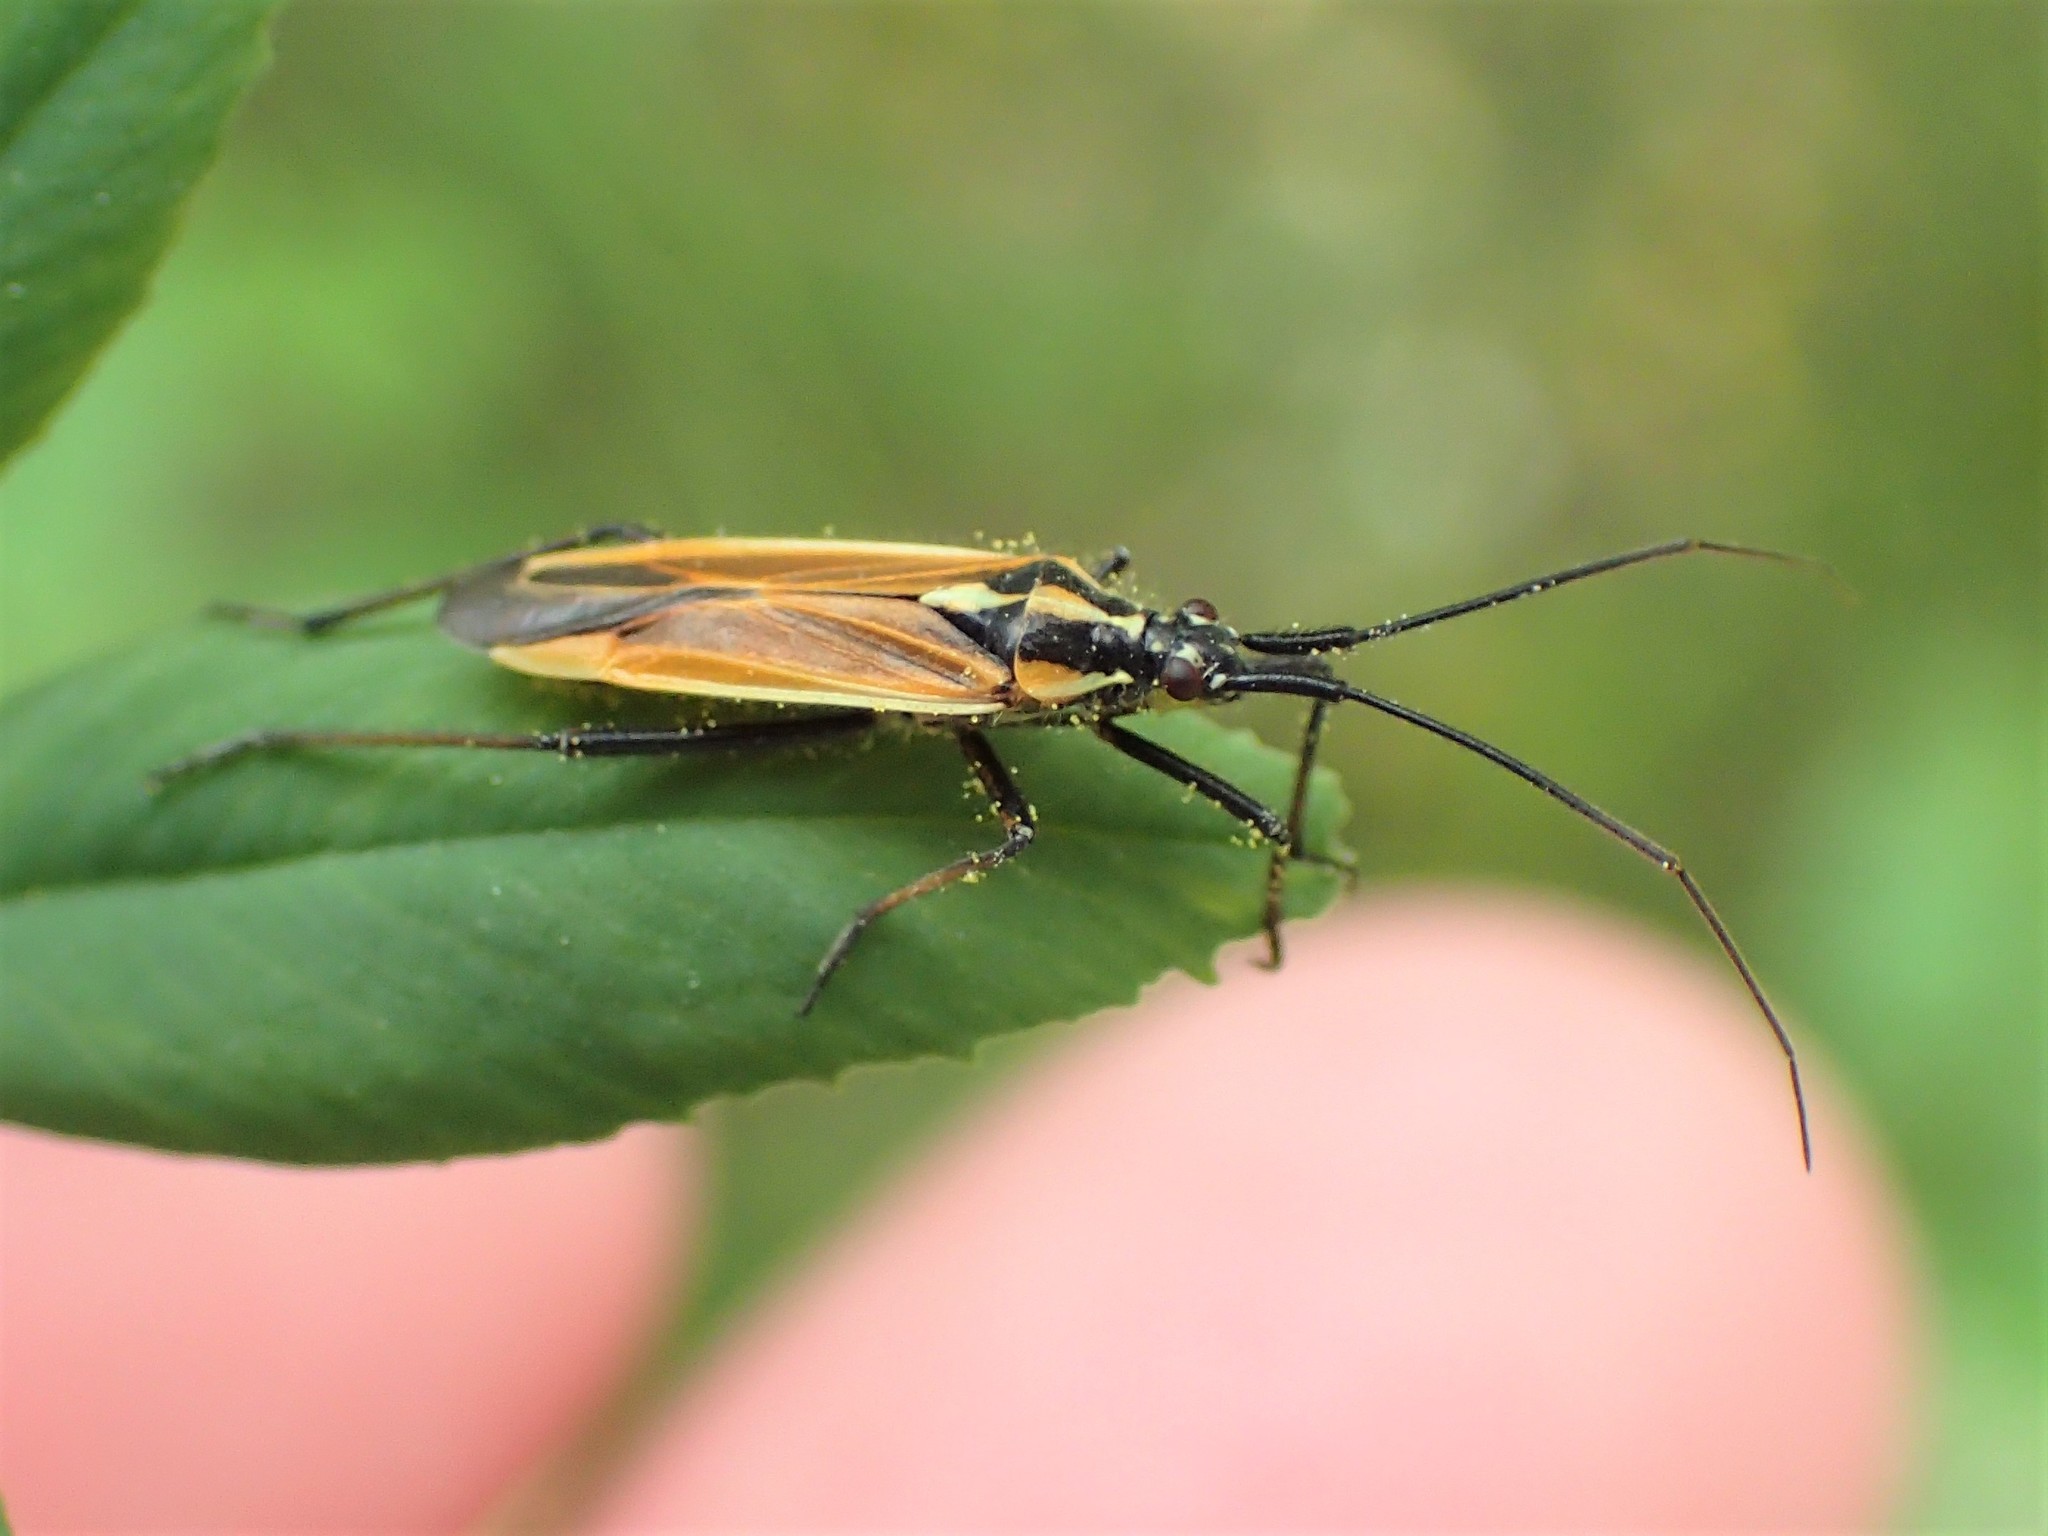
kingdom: Animalia
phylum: Arthropoda
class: Insecta
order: Hemiptera
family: Miridae
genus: Leptopterna
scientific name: Leptopterna dolabrata
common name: Meadow plant bug
